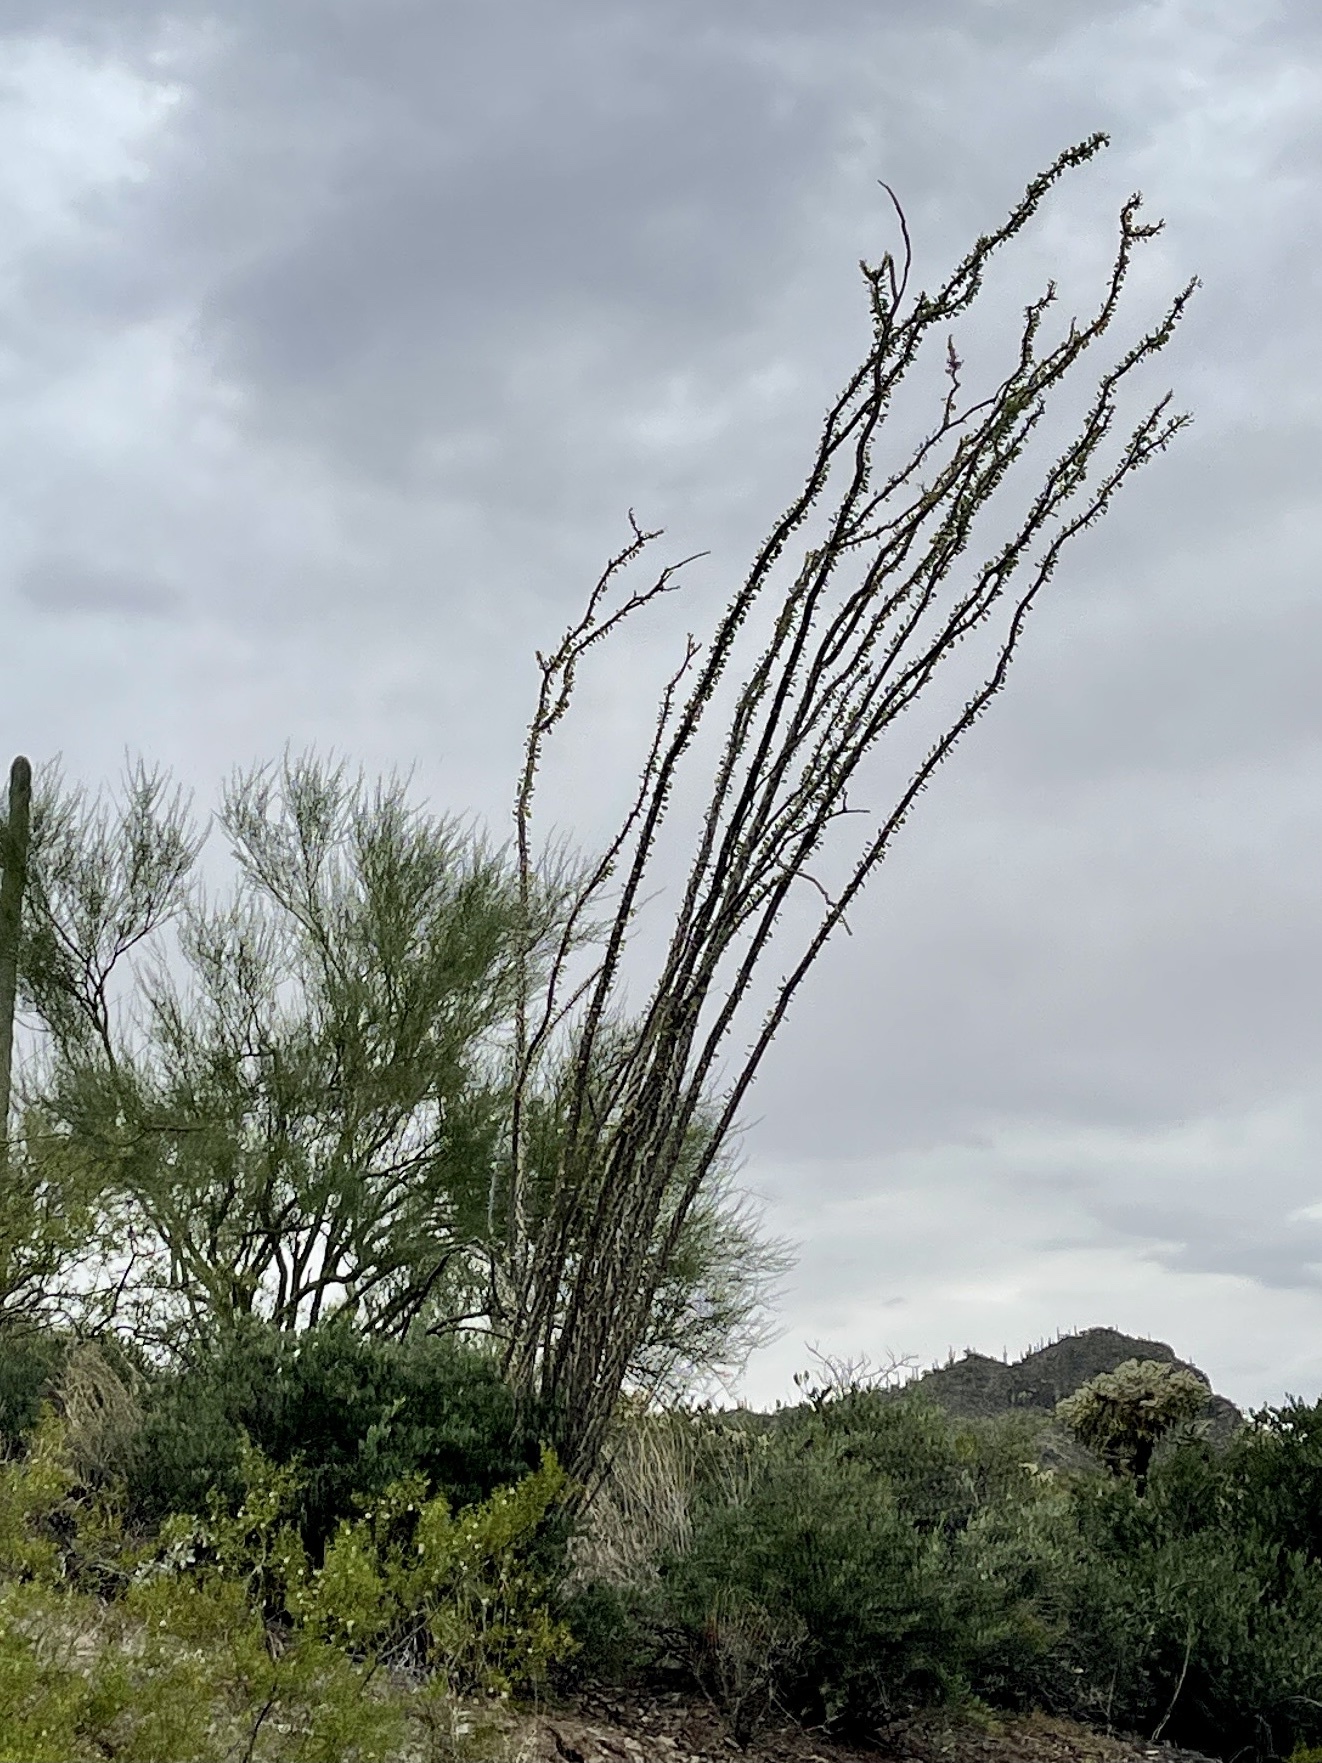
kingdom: Plantae
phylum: Tracheophyta
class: Magnoliopsida
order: Ericales
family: Fouquieriaceae
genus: Fouquieria
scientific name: Fouquieria splendens
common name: Vine-cactus
